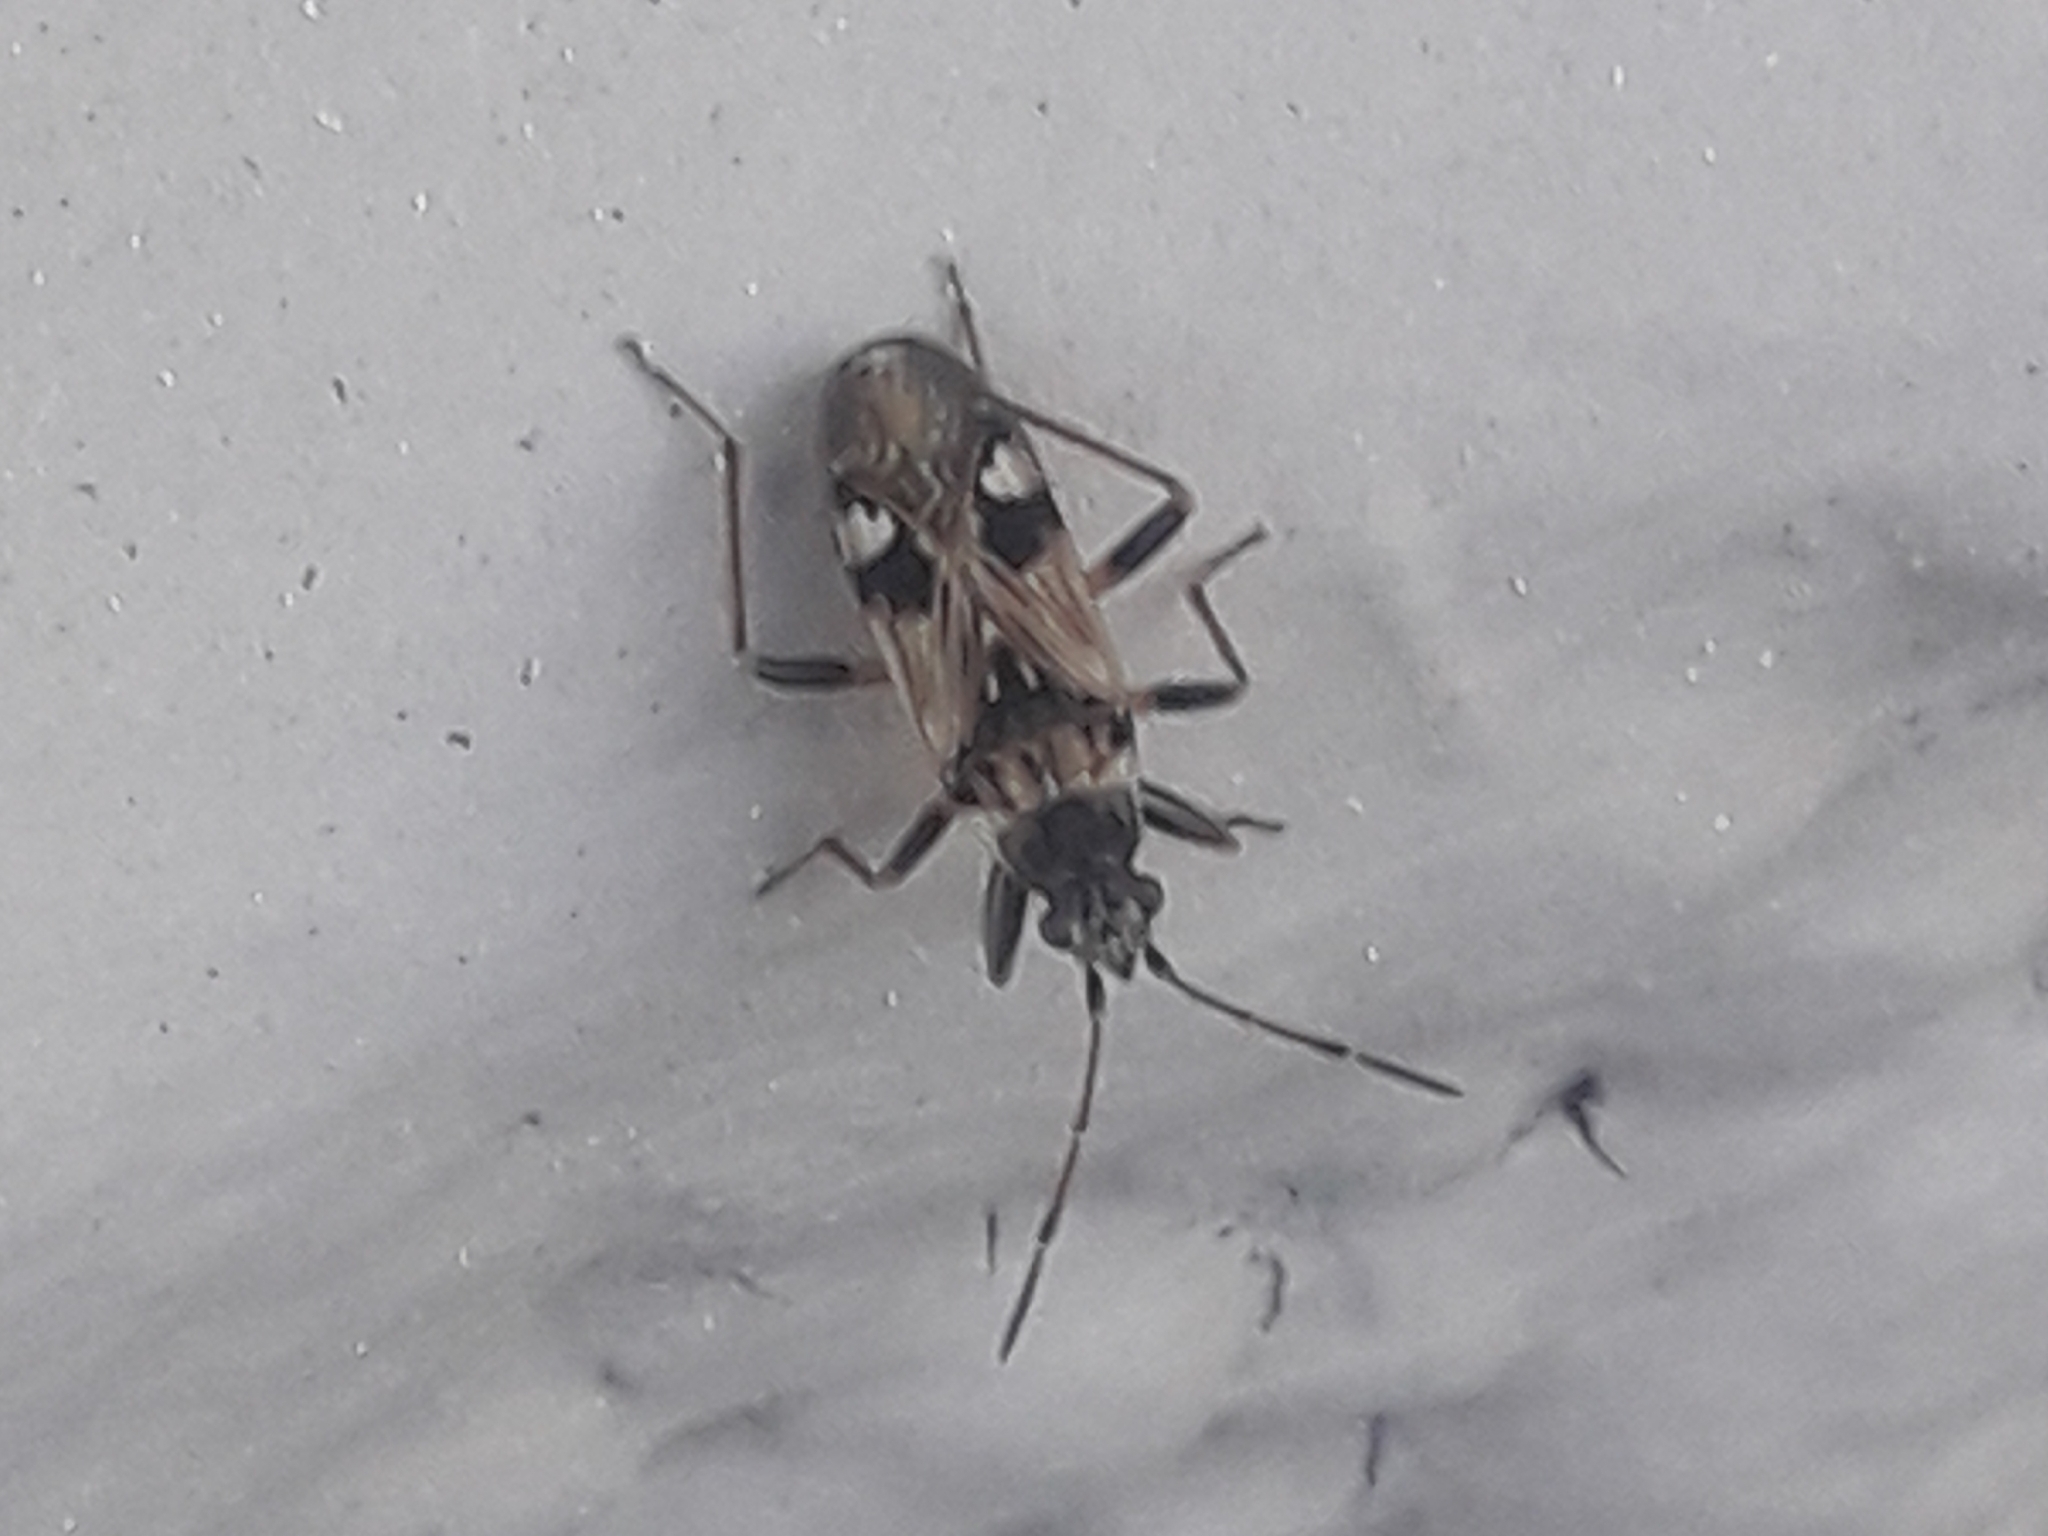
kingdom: Animalia
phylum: Arthropoda
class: Insecta
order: Hemiptera
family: Rhyparochromidae
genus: Beosus
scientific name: Beosus maritimus
